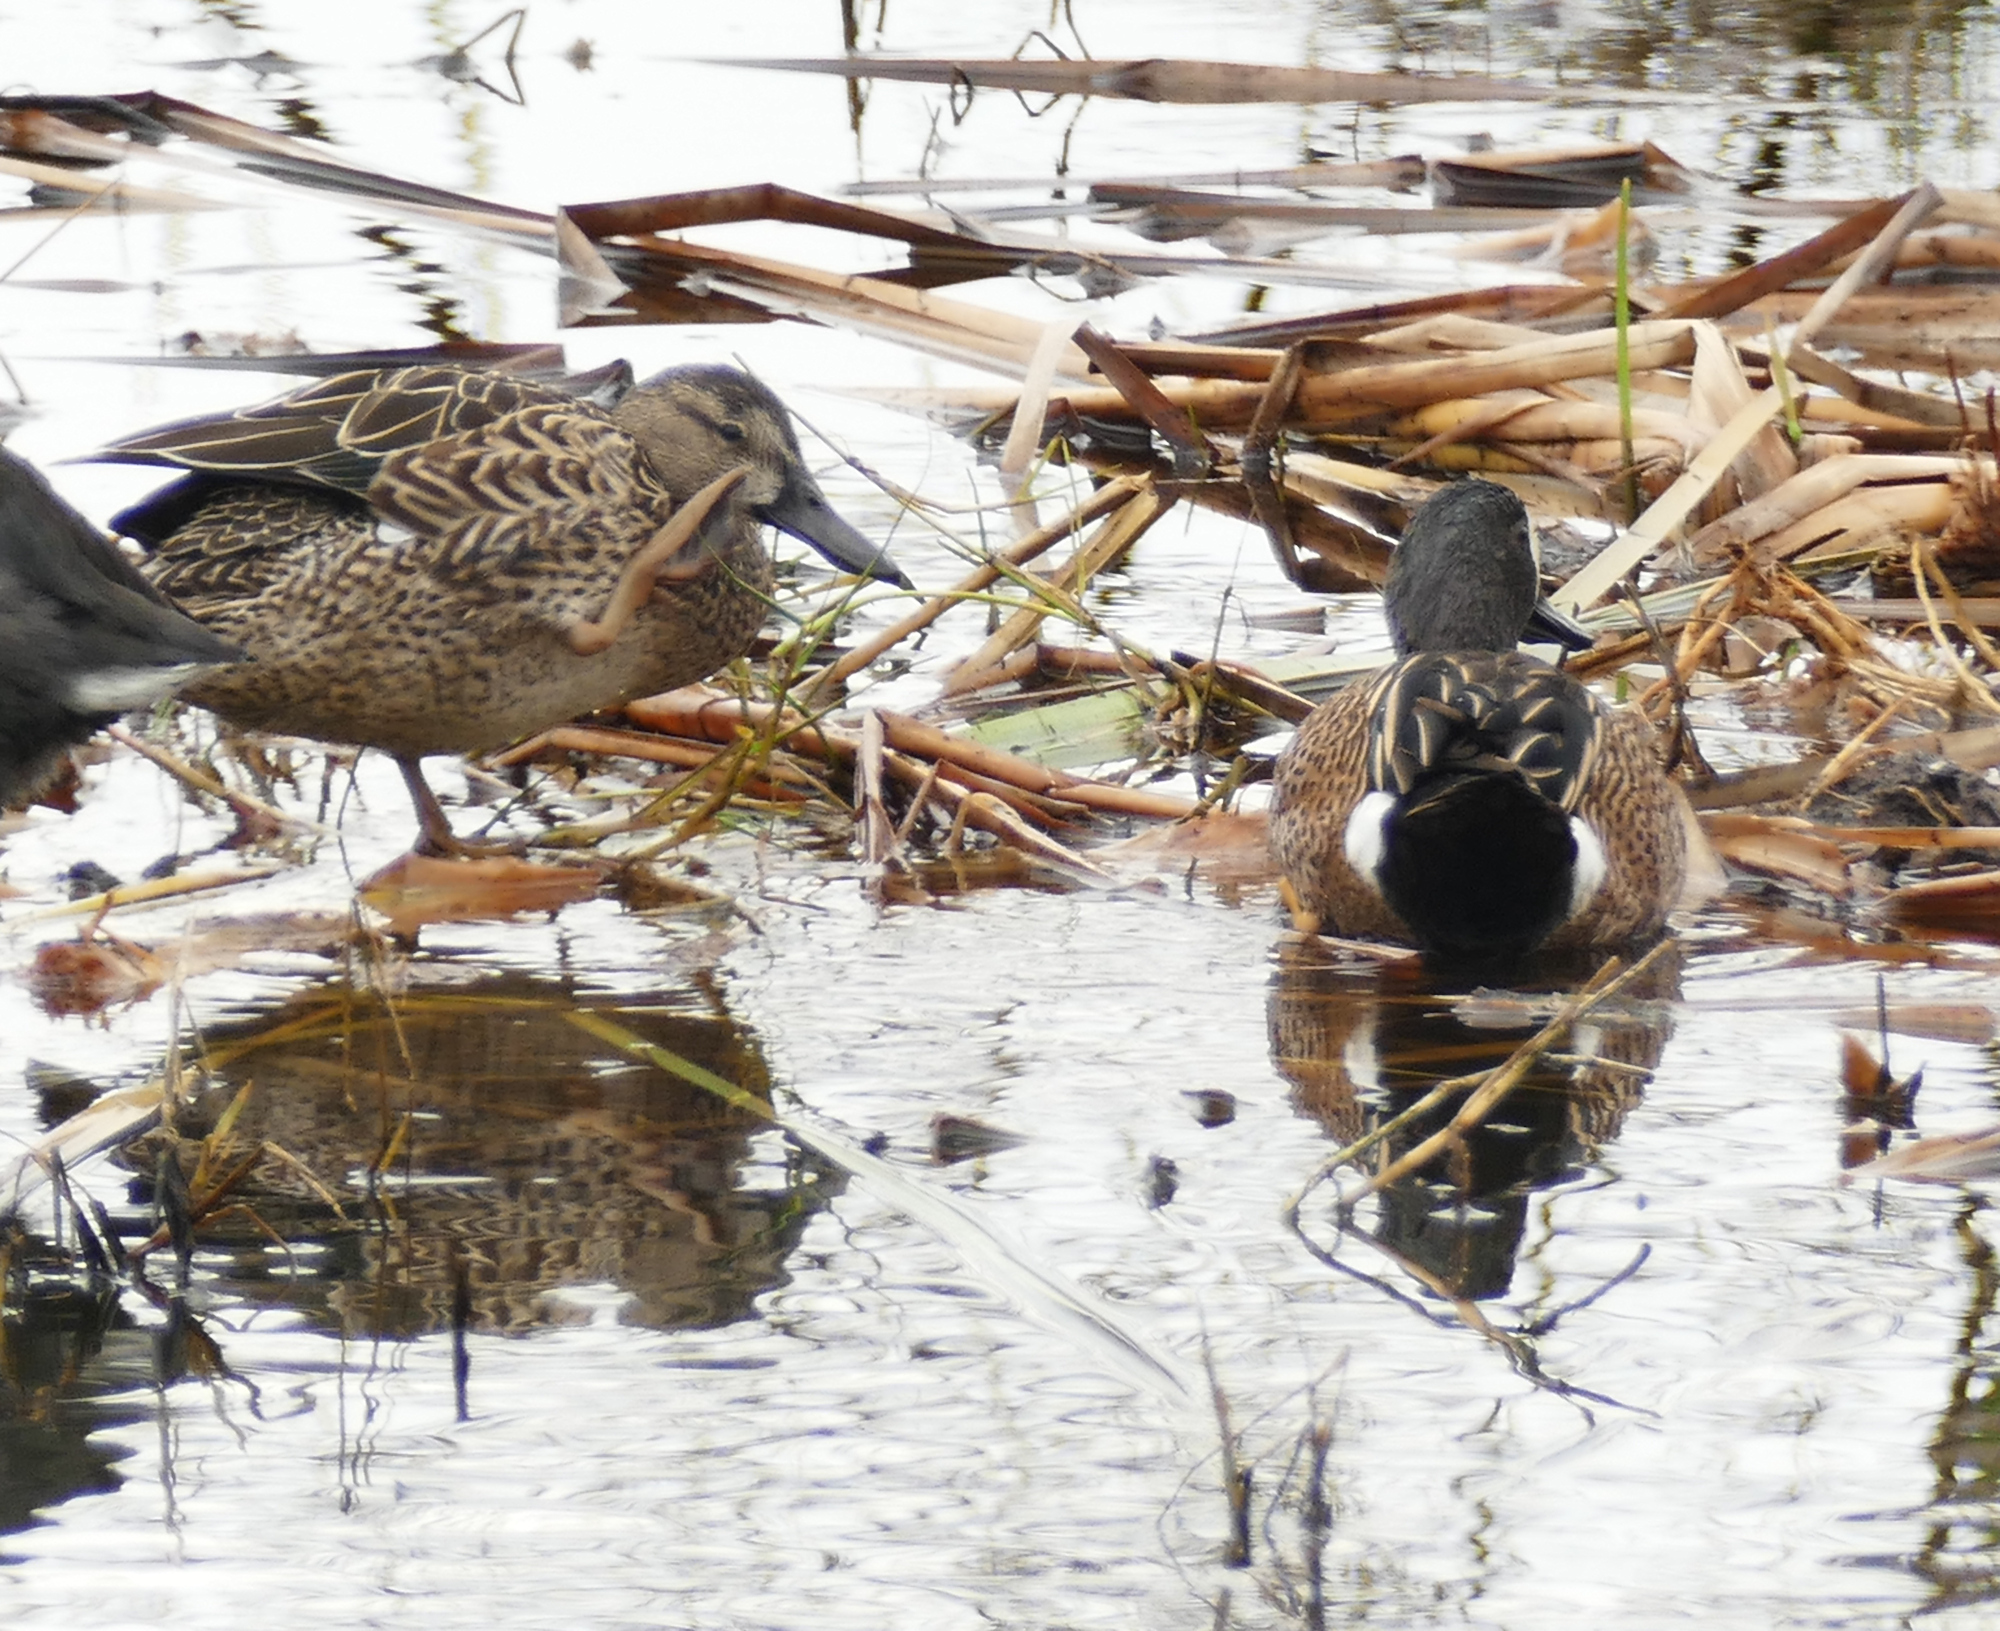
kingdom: Animalia
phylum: Chordata
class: Aves
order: Anseriformes
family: Anatidae
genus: Spatula
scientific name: Spatula discors
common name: Blue-winged teal
